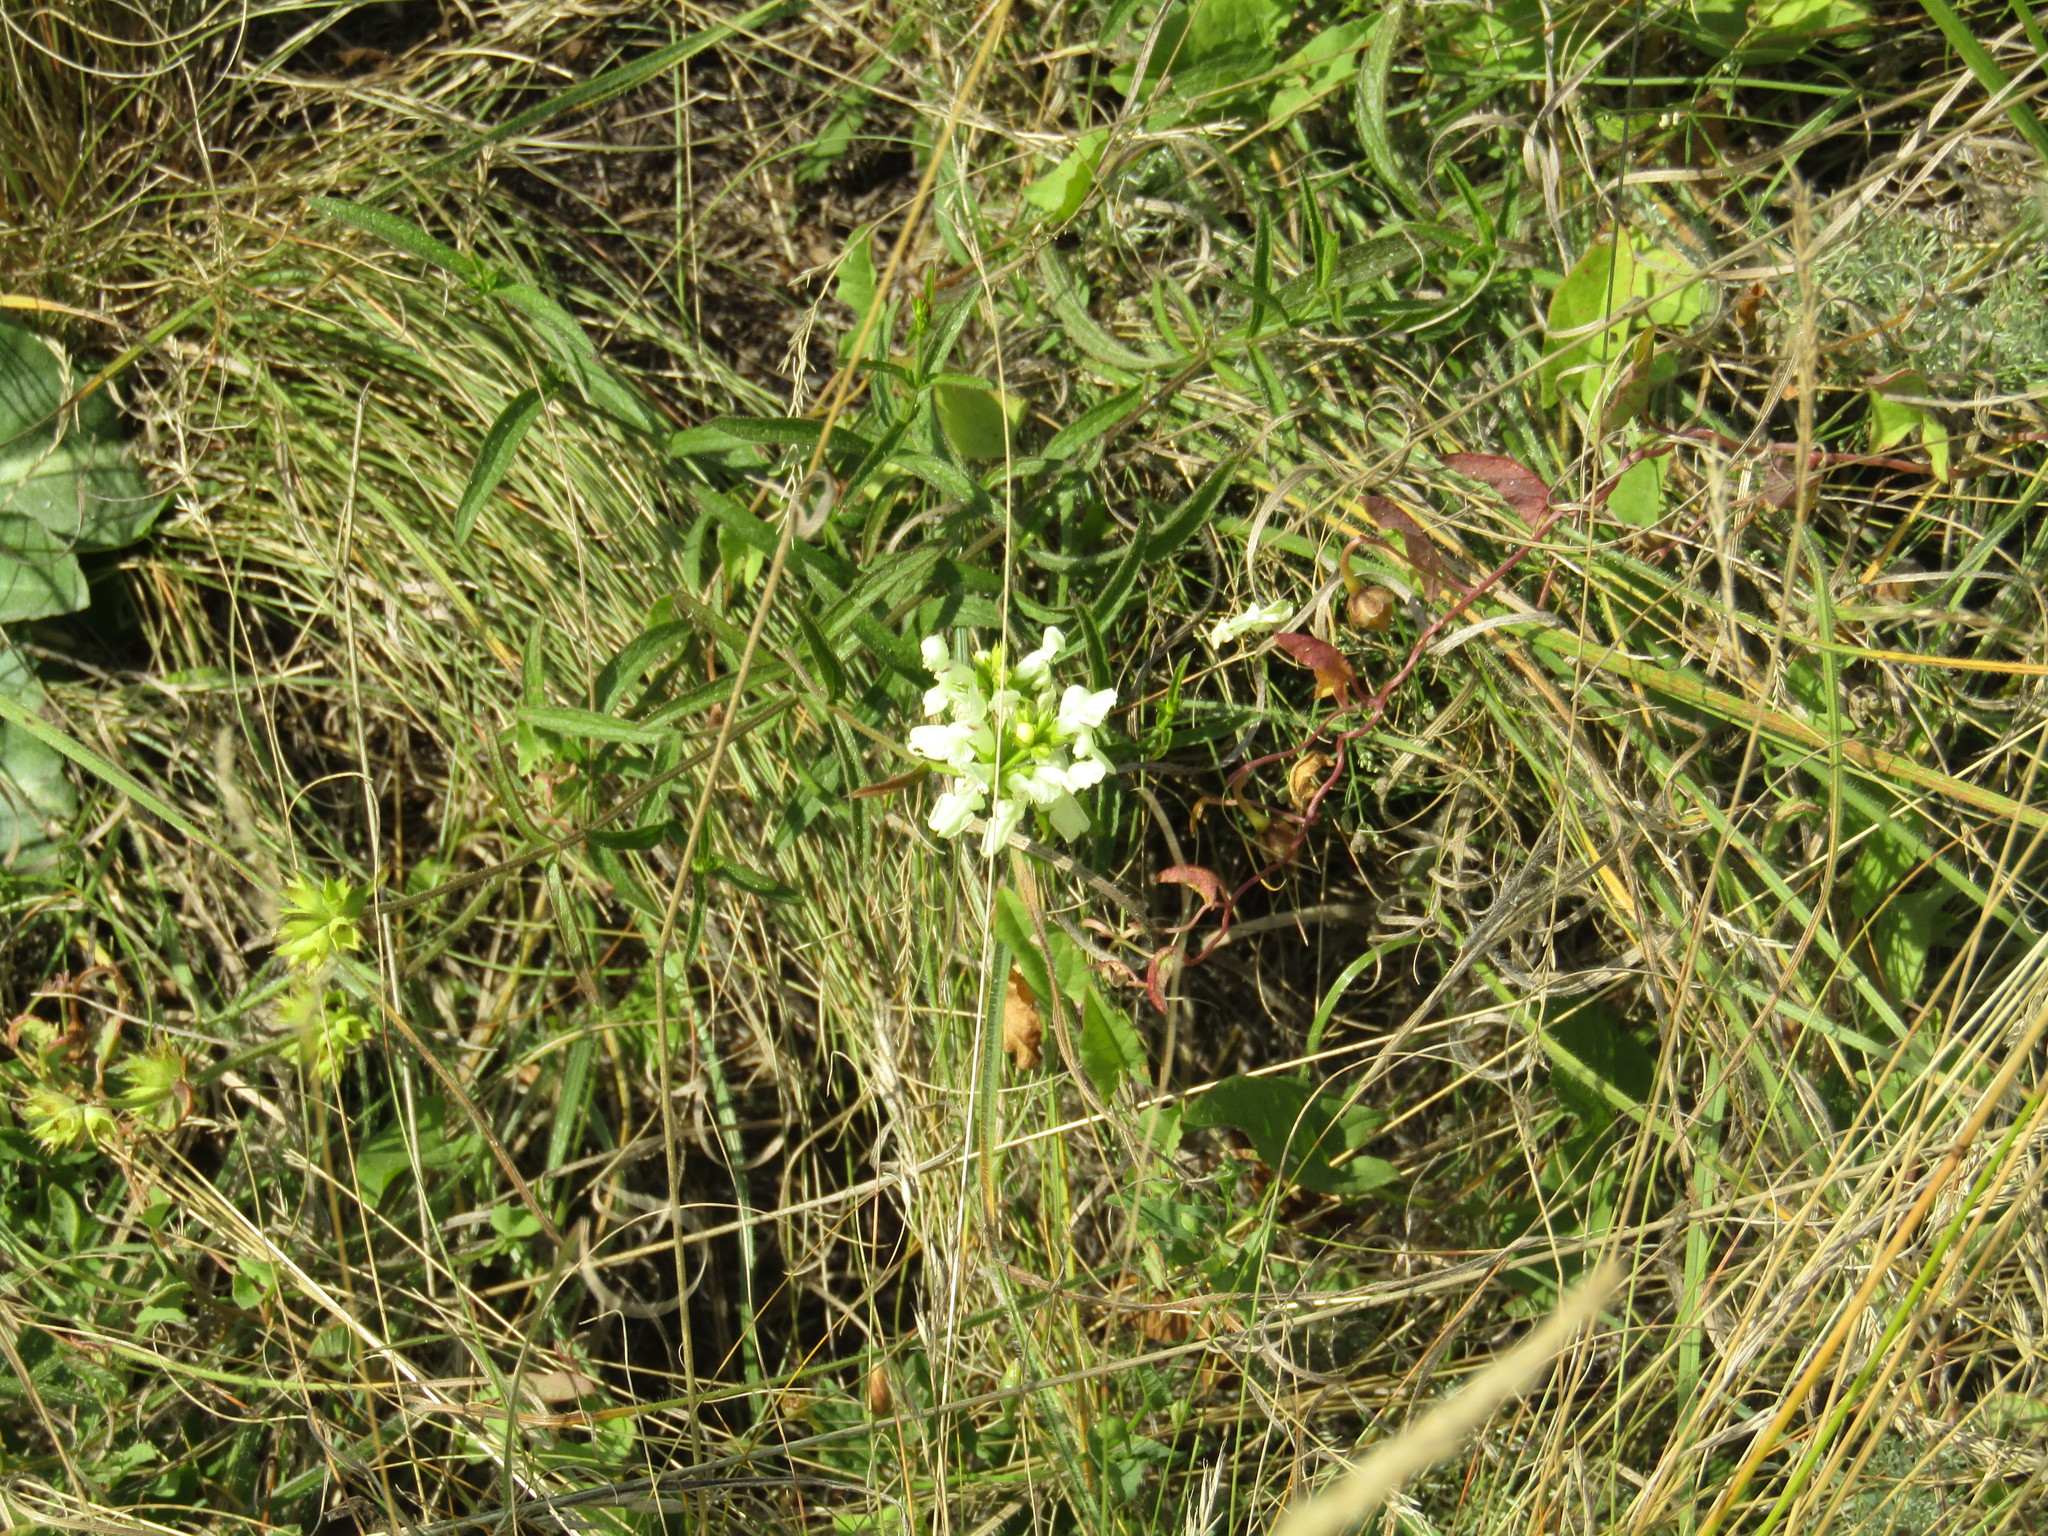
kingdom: Plantae
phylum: Tracheophyta
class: Magnoliopsida
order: Lamiales
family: Lamiaceae
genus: Stachys
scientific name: Stachys recta
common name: Perennial yellow-woundwort
